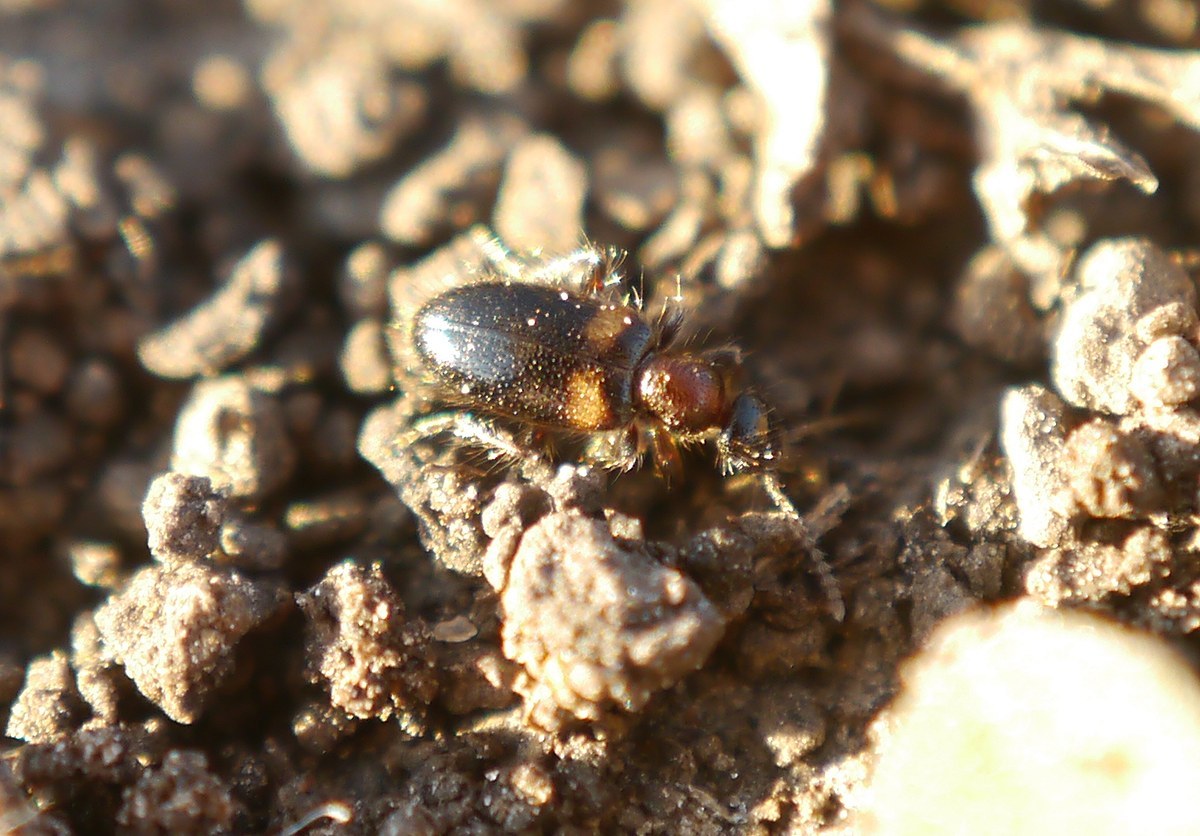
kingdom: Animalia
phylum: Arthropoda
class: Insecta
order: Coleoptera
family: Anthicidae
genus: Hirticollis
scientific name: Hirticollis hispidus
